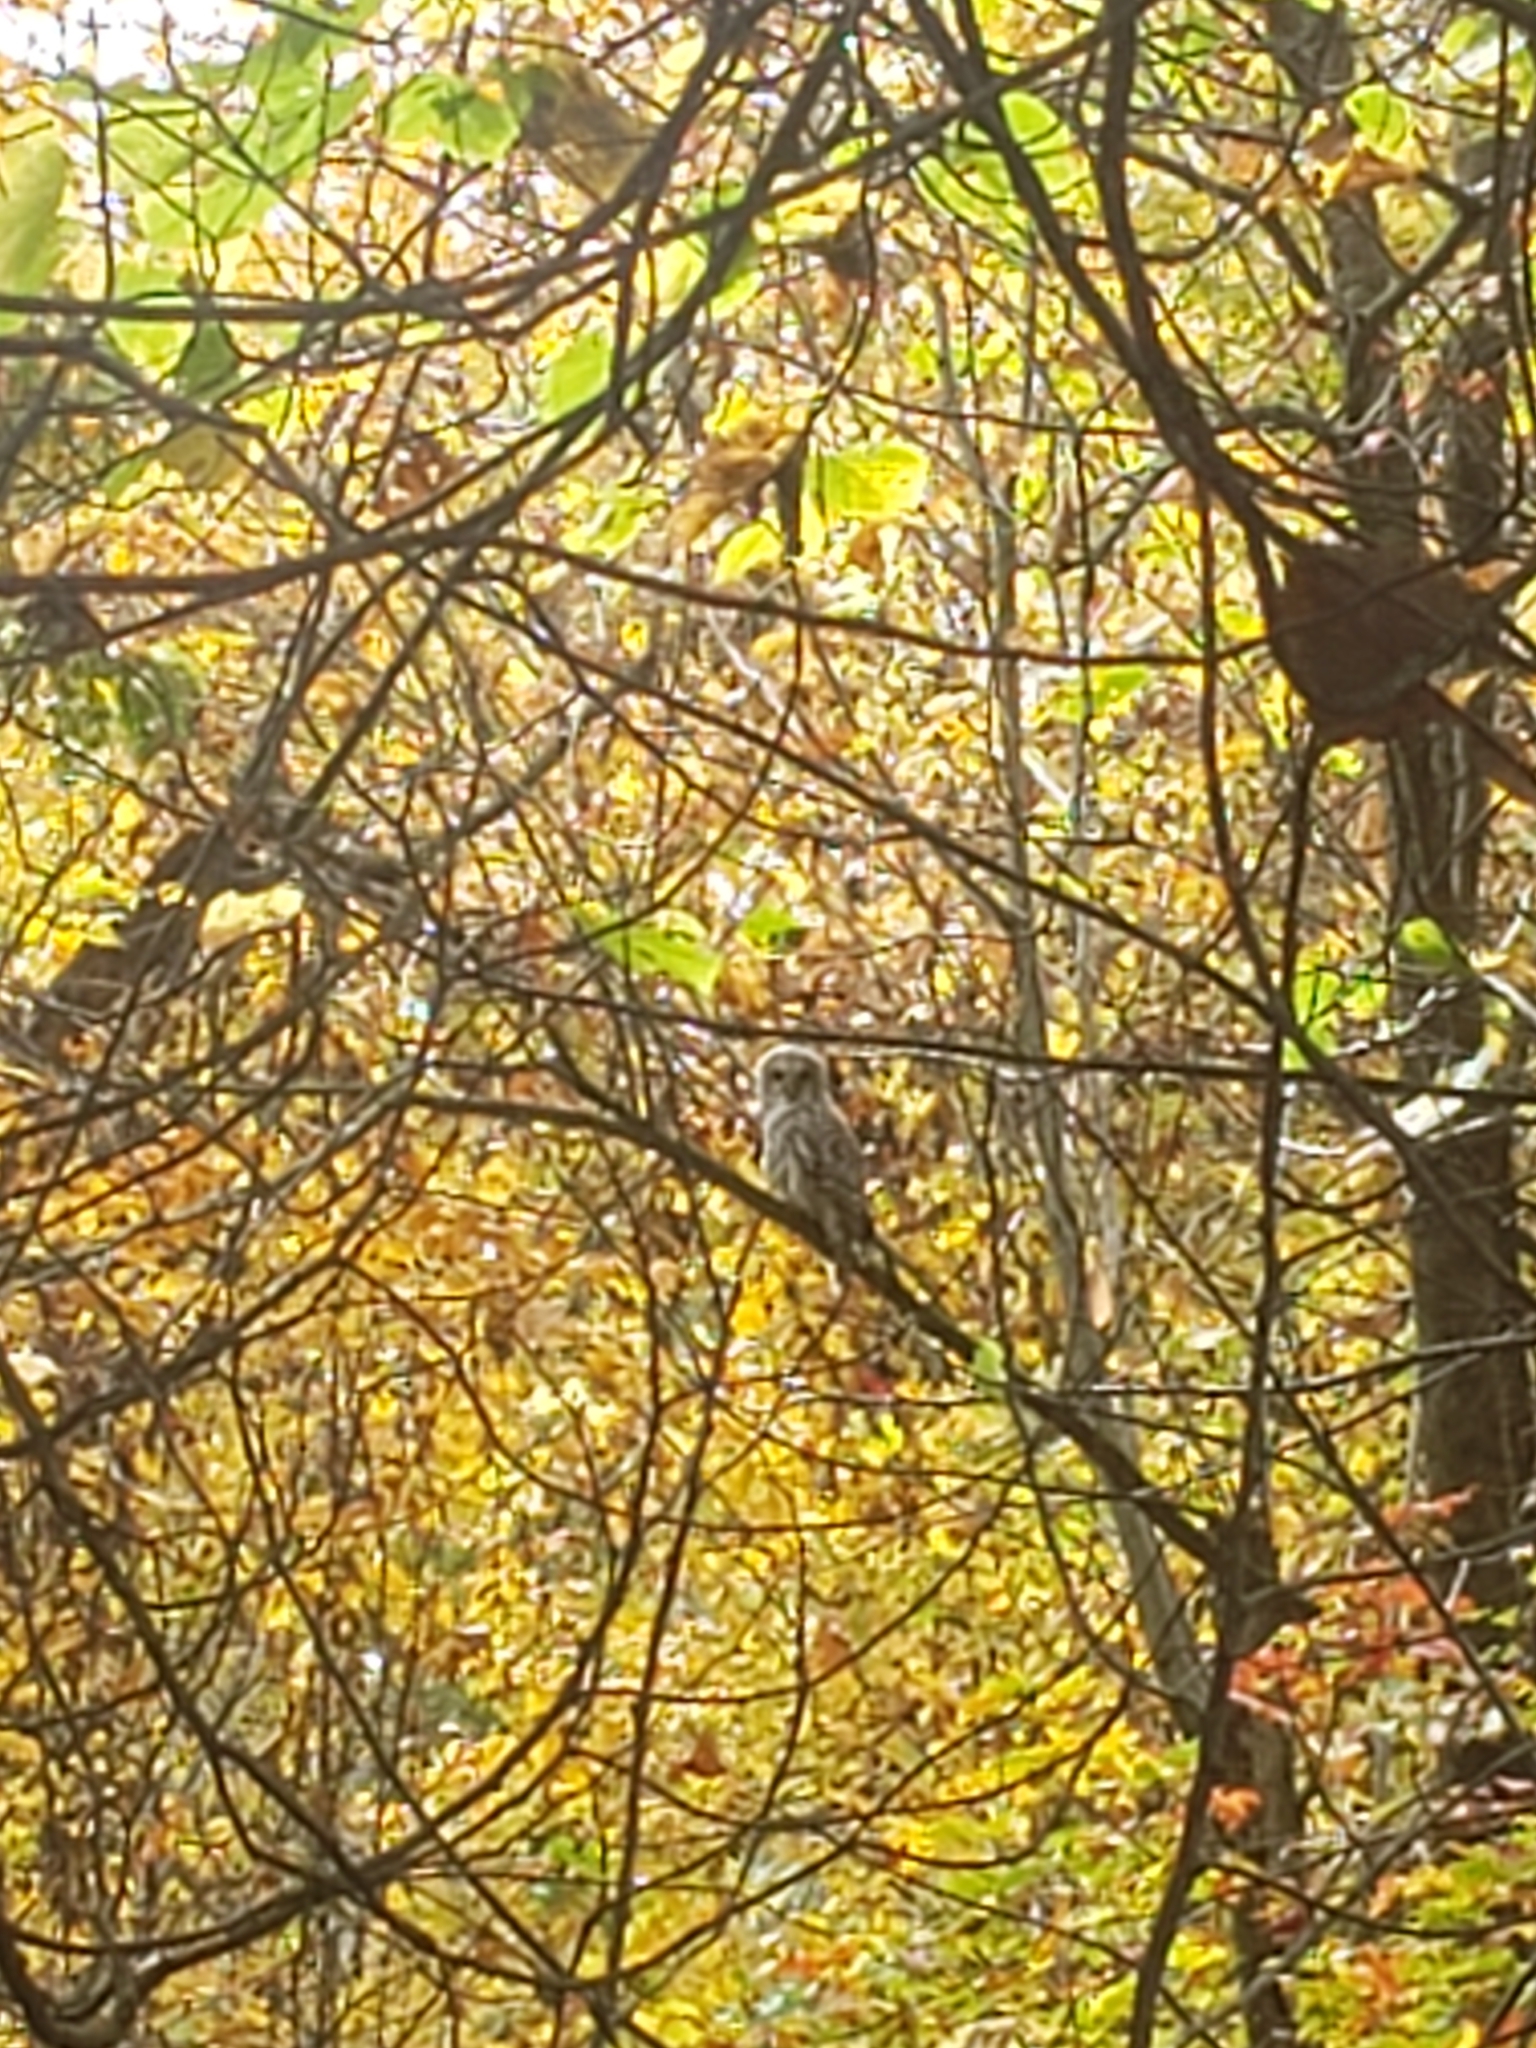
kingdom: Animalia
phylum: Chordata
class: Aves
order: Strigiformes
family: Strigidae
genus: Strix
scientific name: Strix varia
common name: Barred owl
